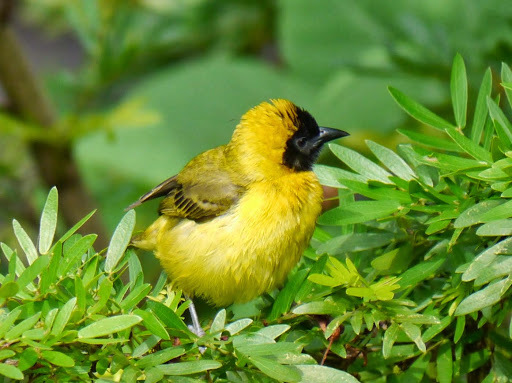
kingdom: Animalia
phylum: Chordata
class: Aves
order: Passeriformes
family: Ploceidae
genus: Ploceus
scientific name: Ploceus pelzelni
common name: Slender-billed weaver
